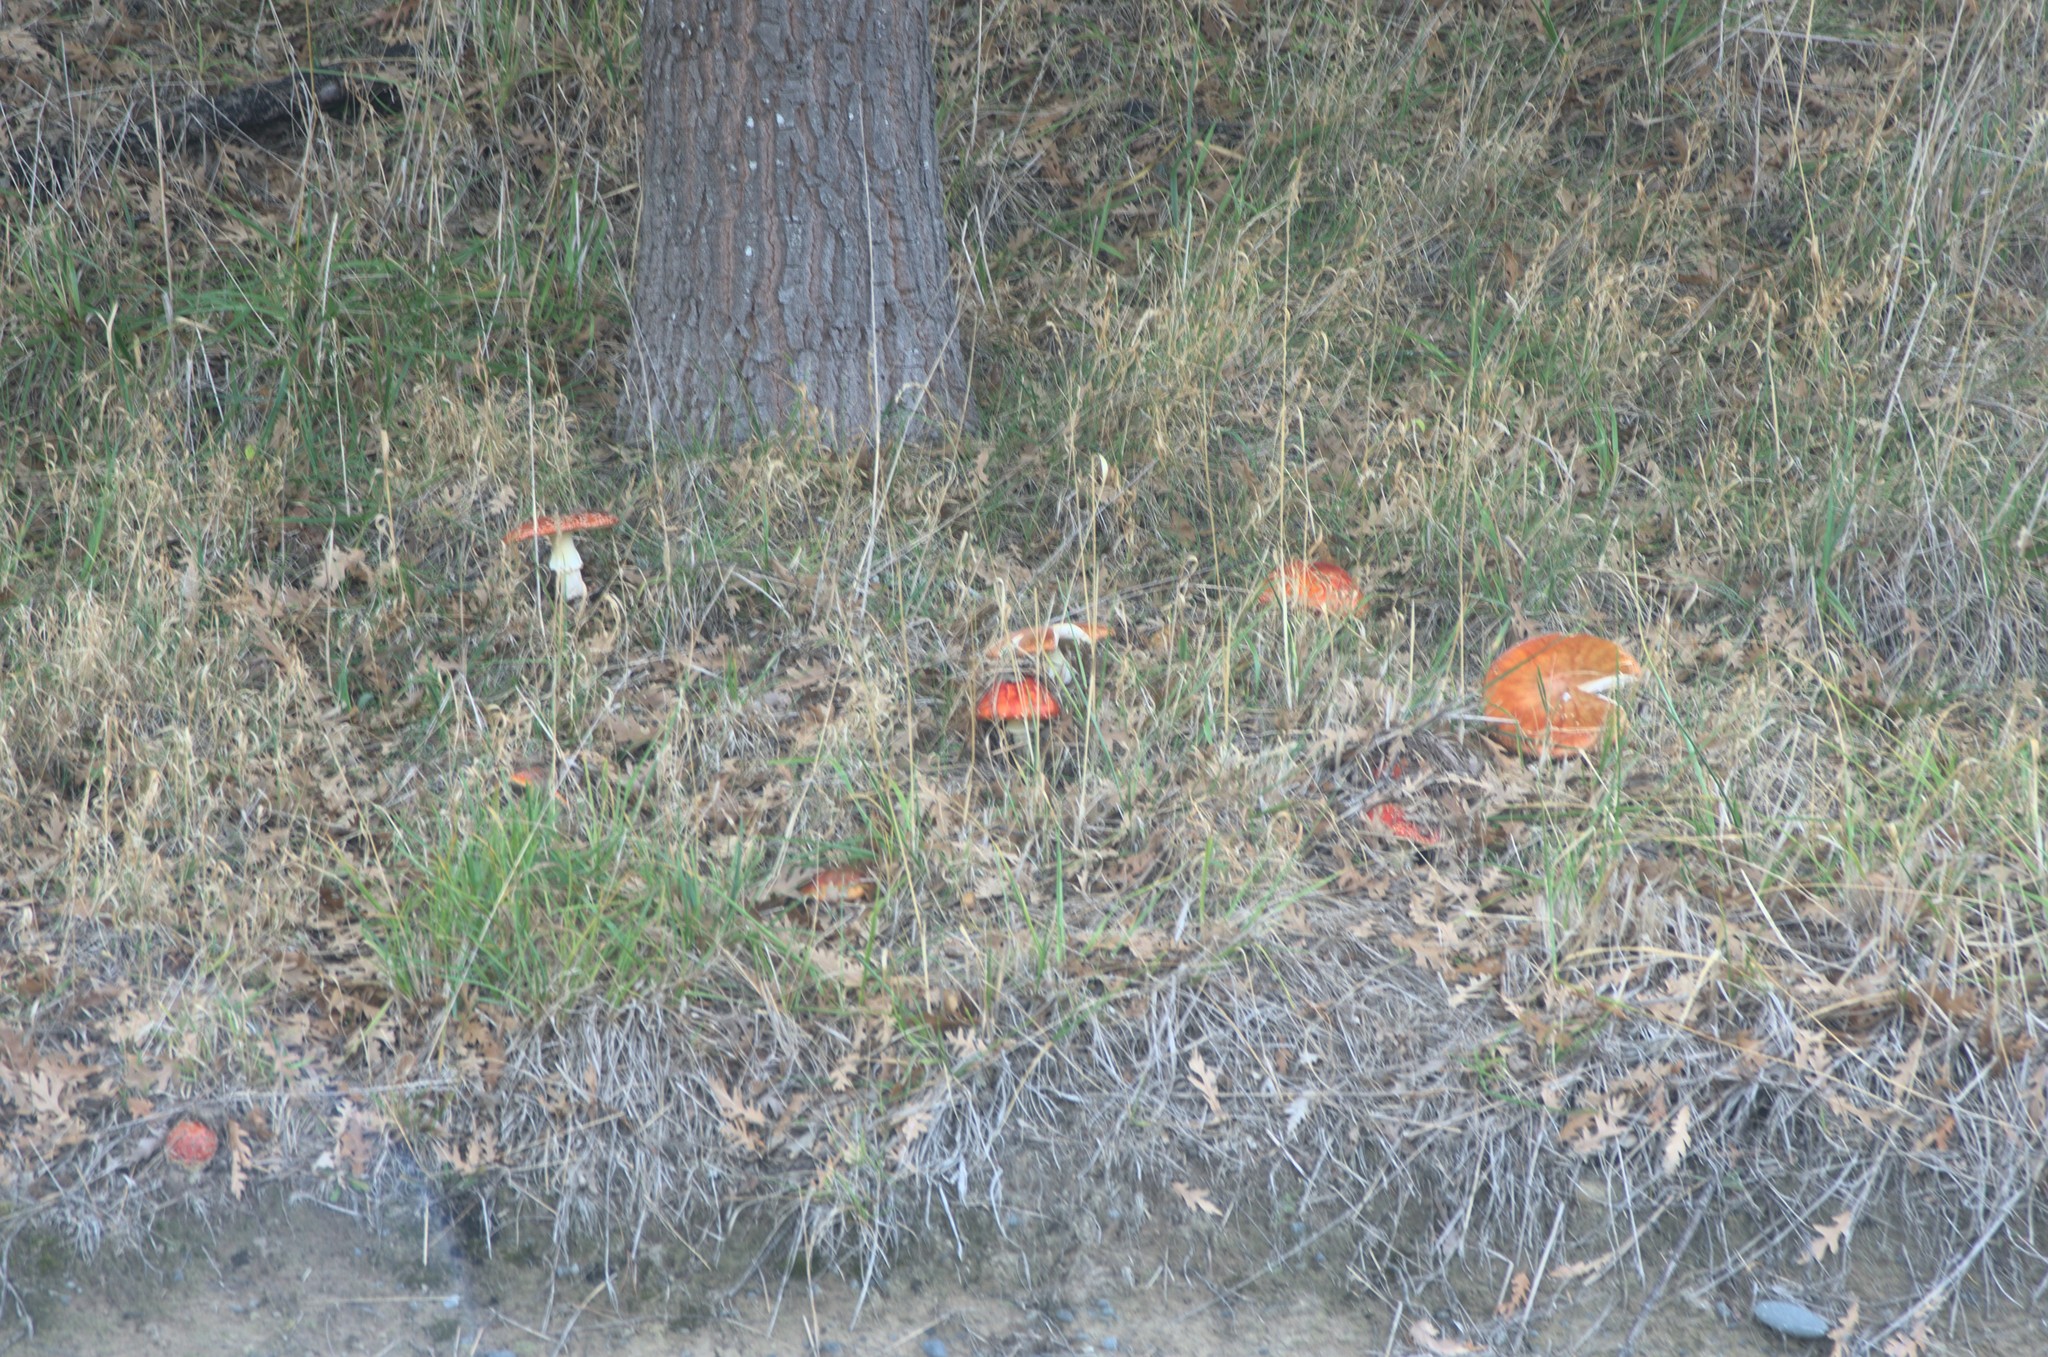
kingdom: Fungi
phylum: Basidiomycota
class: Agaricomycetes
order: Agaricales
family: Amanitaceae
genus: Amanita
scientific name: Amanita muscaria
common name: Fly agaric
